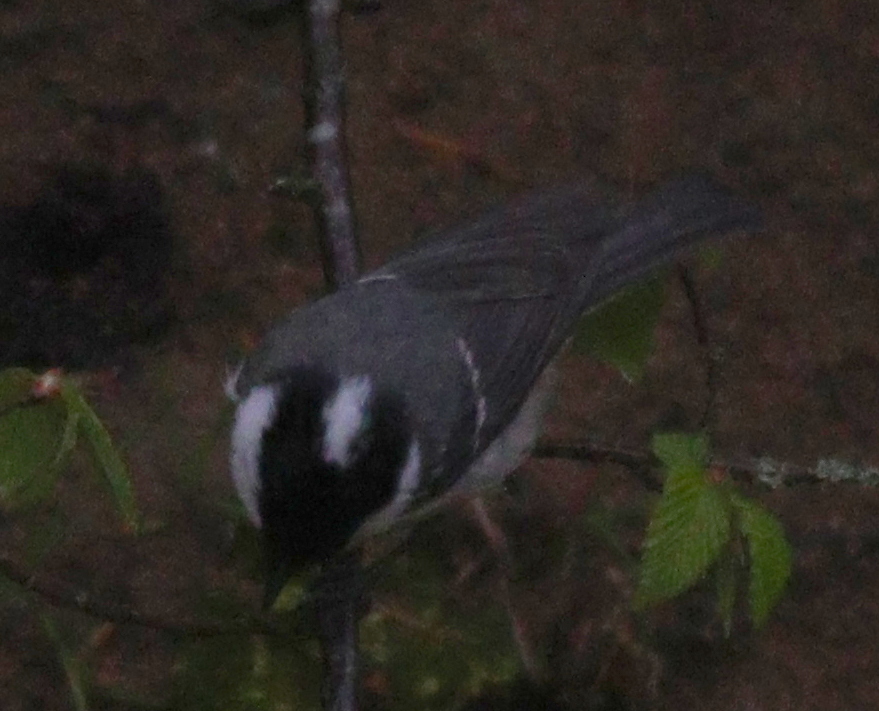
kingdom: Animalia
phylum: Chordata
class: Aves
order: Passeriformes
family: Paridae
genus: Periparus
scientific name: Periparus ater
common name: Coal tit
